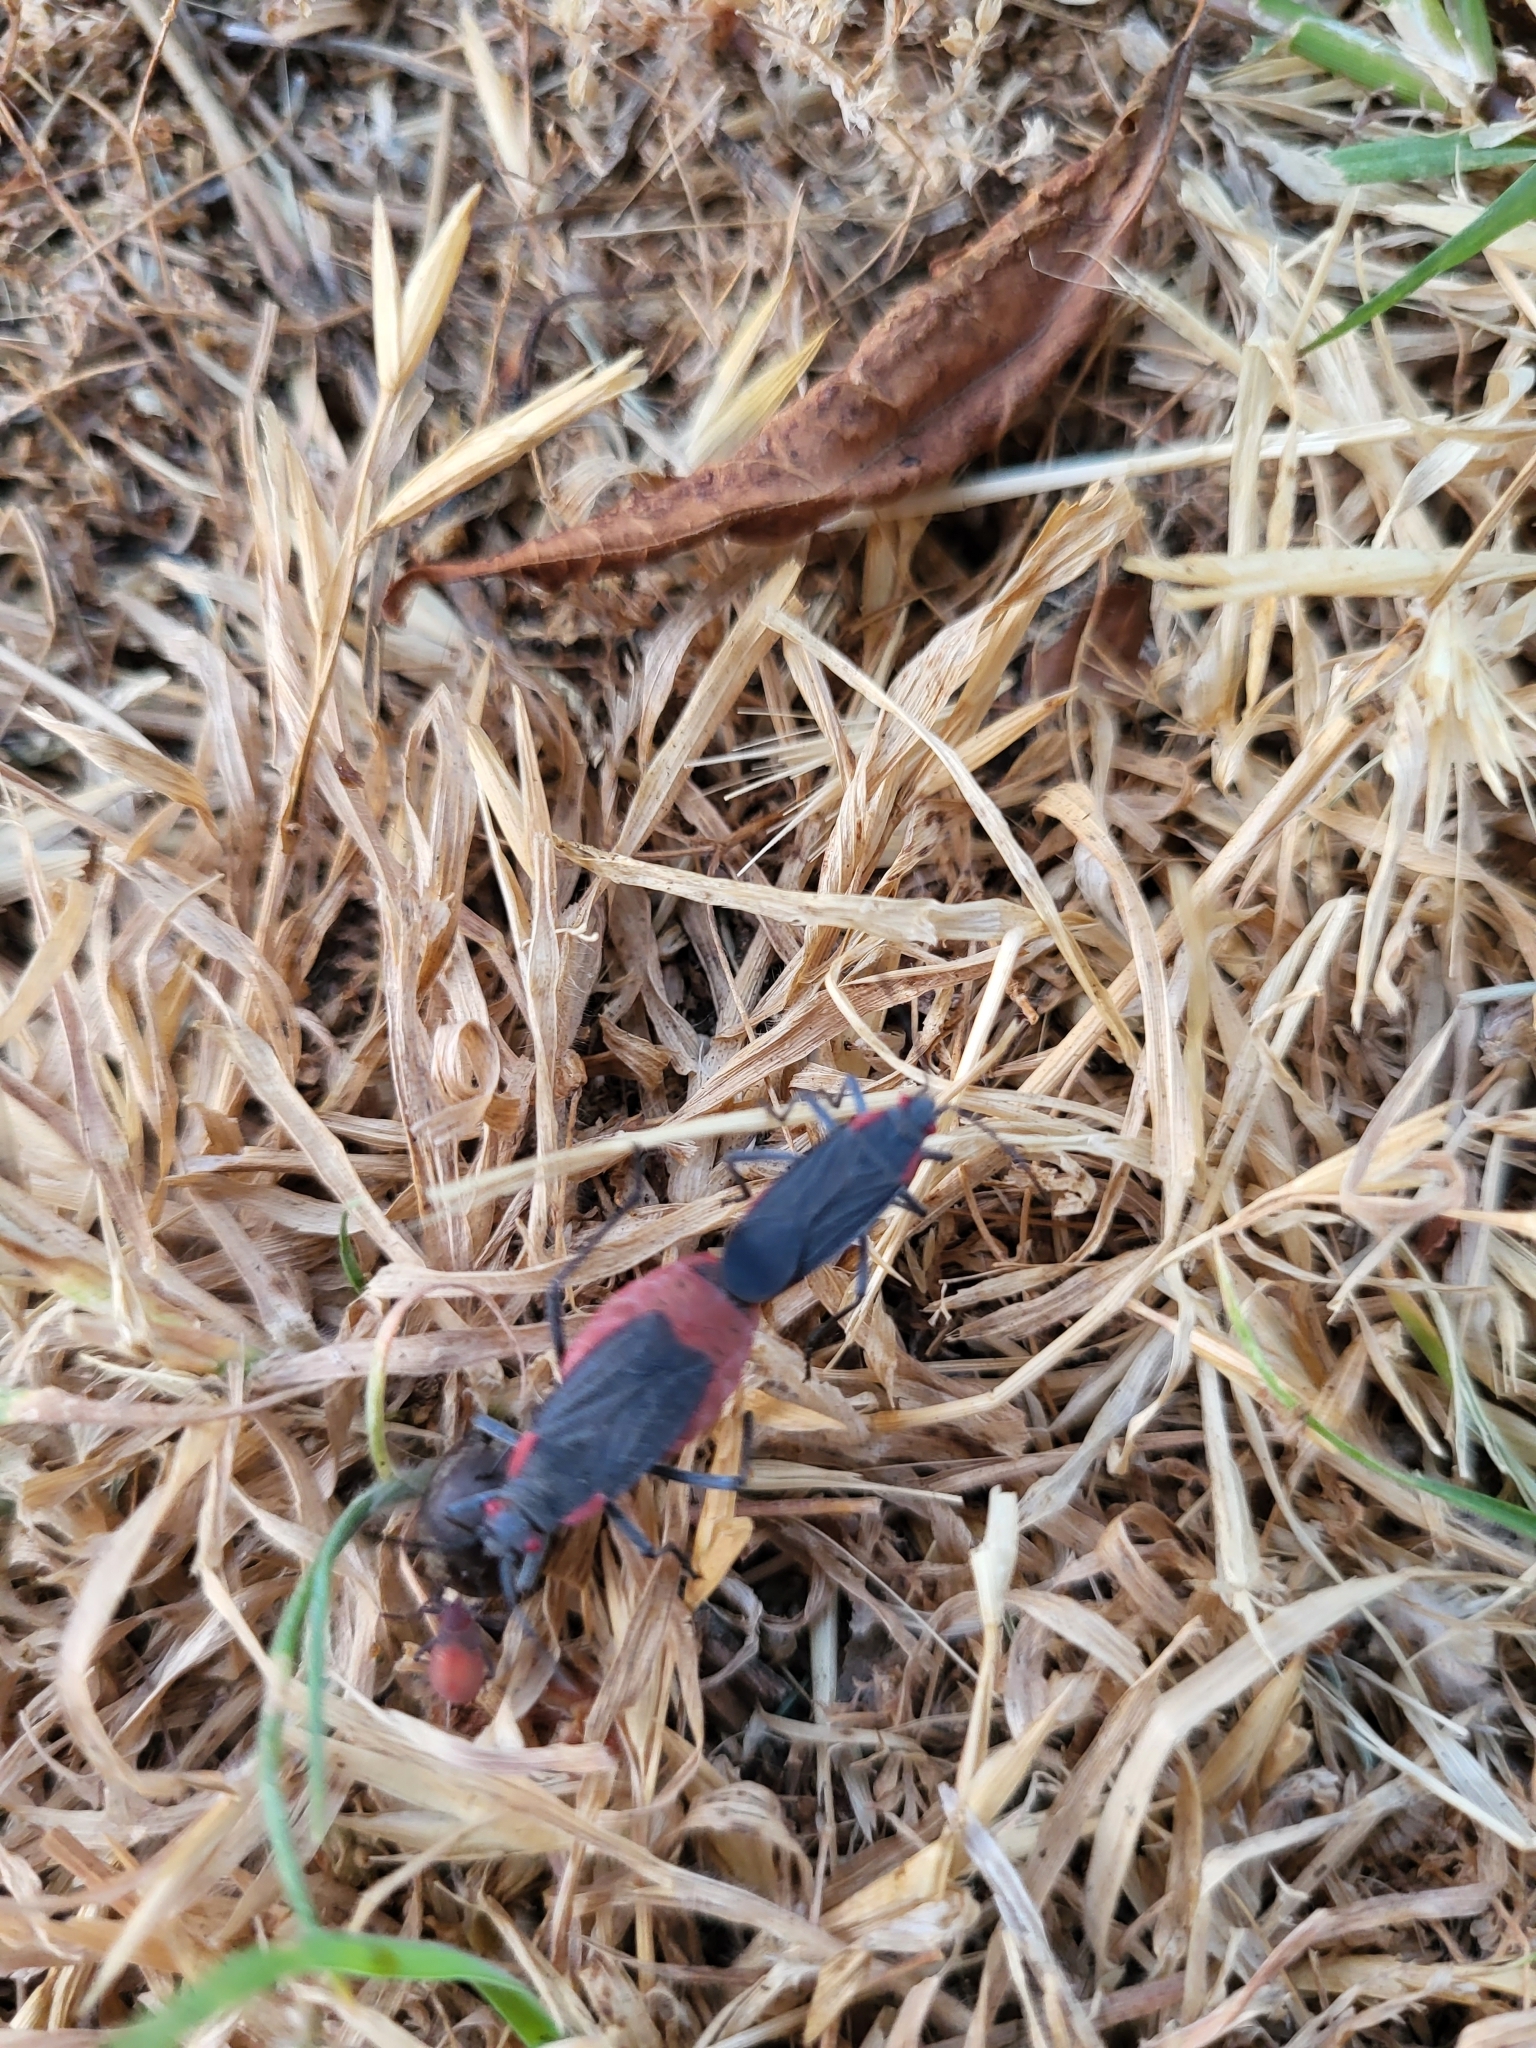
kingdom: Animalia
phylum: Arthropoda
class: Insecta
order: Hemiptera
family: Rhopalidae
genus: Jadera
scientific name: Jadera haematoloma
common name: Red-shouldered bug
